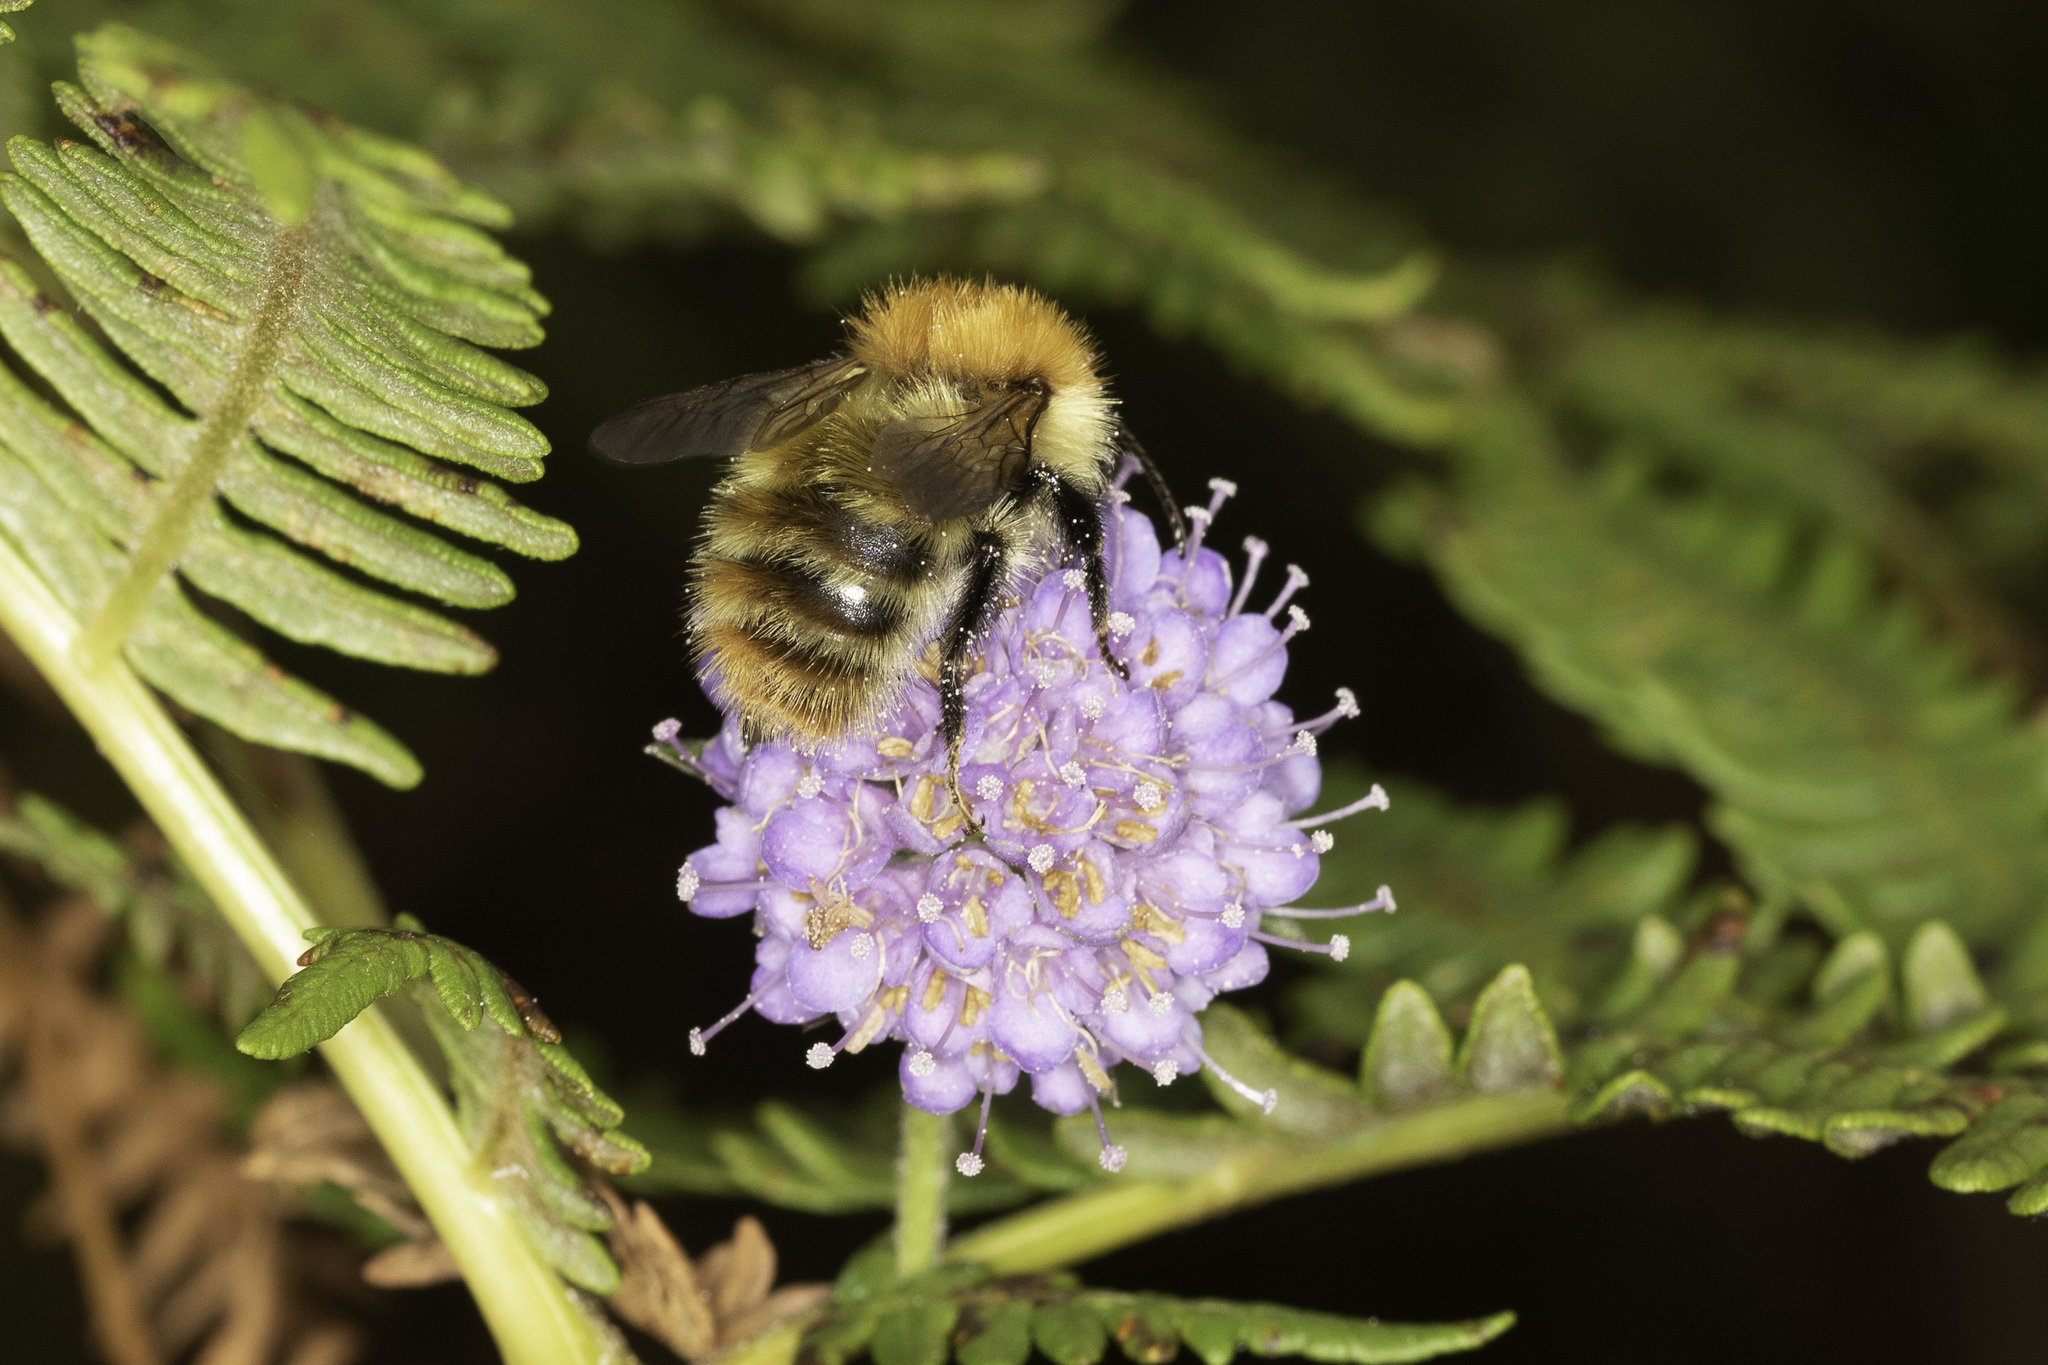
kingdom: Animalia
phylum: Arthropoda
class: Insecta
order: Hymenoptera
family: Apidae
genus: Bombus
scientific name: Bombus pascuorum
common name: Common carder bee
